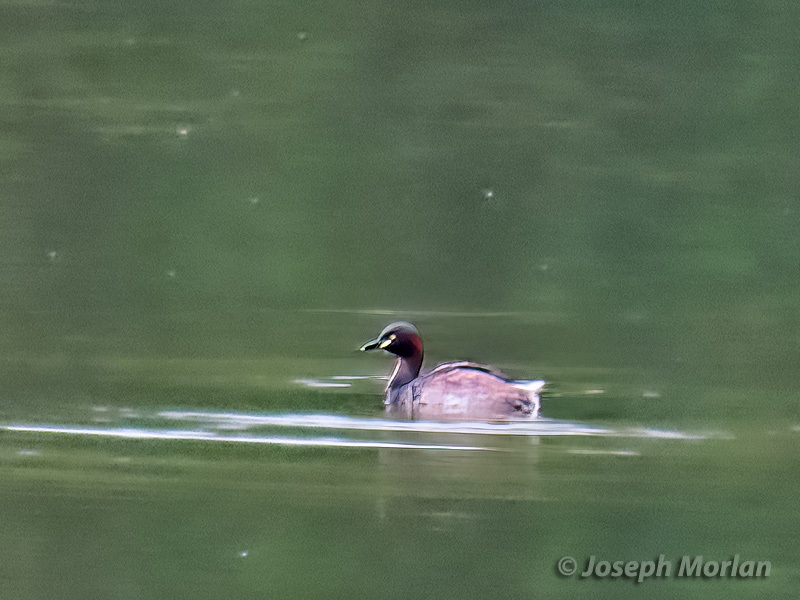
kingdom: Animalia
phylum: Chordata
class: Aves
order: Podicipediformes
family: Podicipedidae
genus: Tachybaptus
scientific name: Tachybaptus novaehollandiae
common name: Australasian grebe
